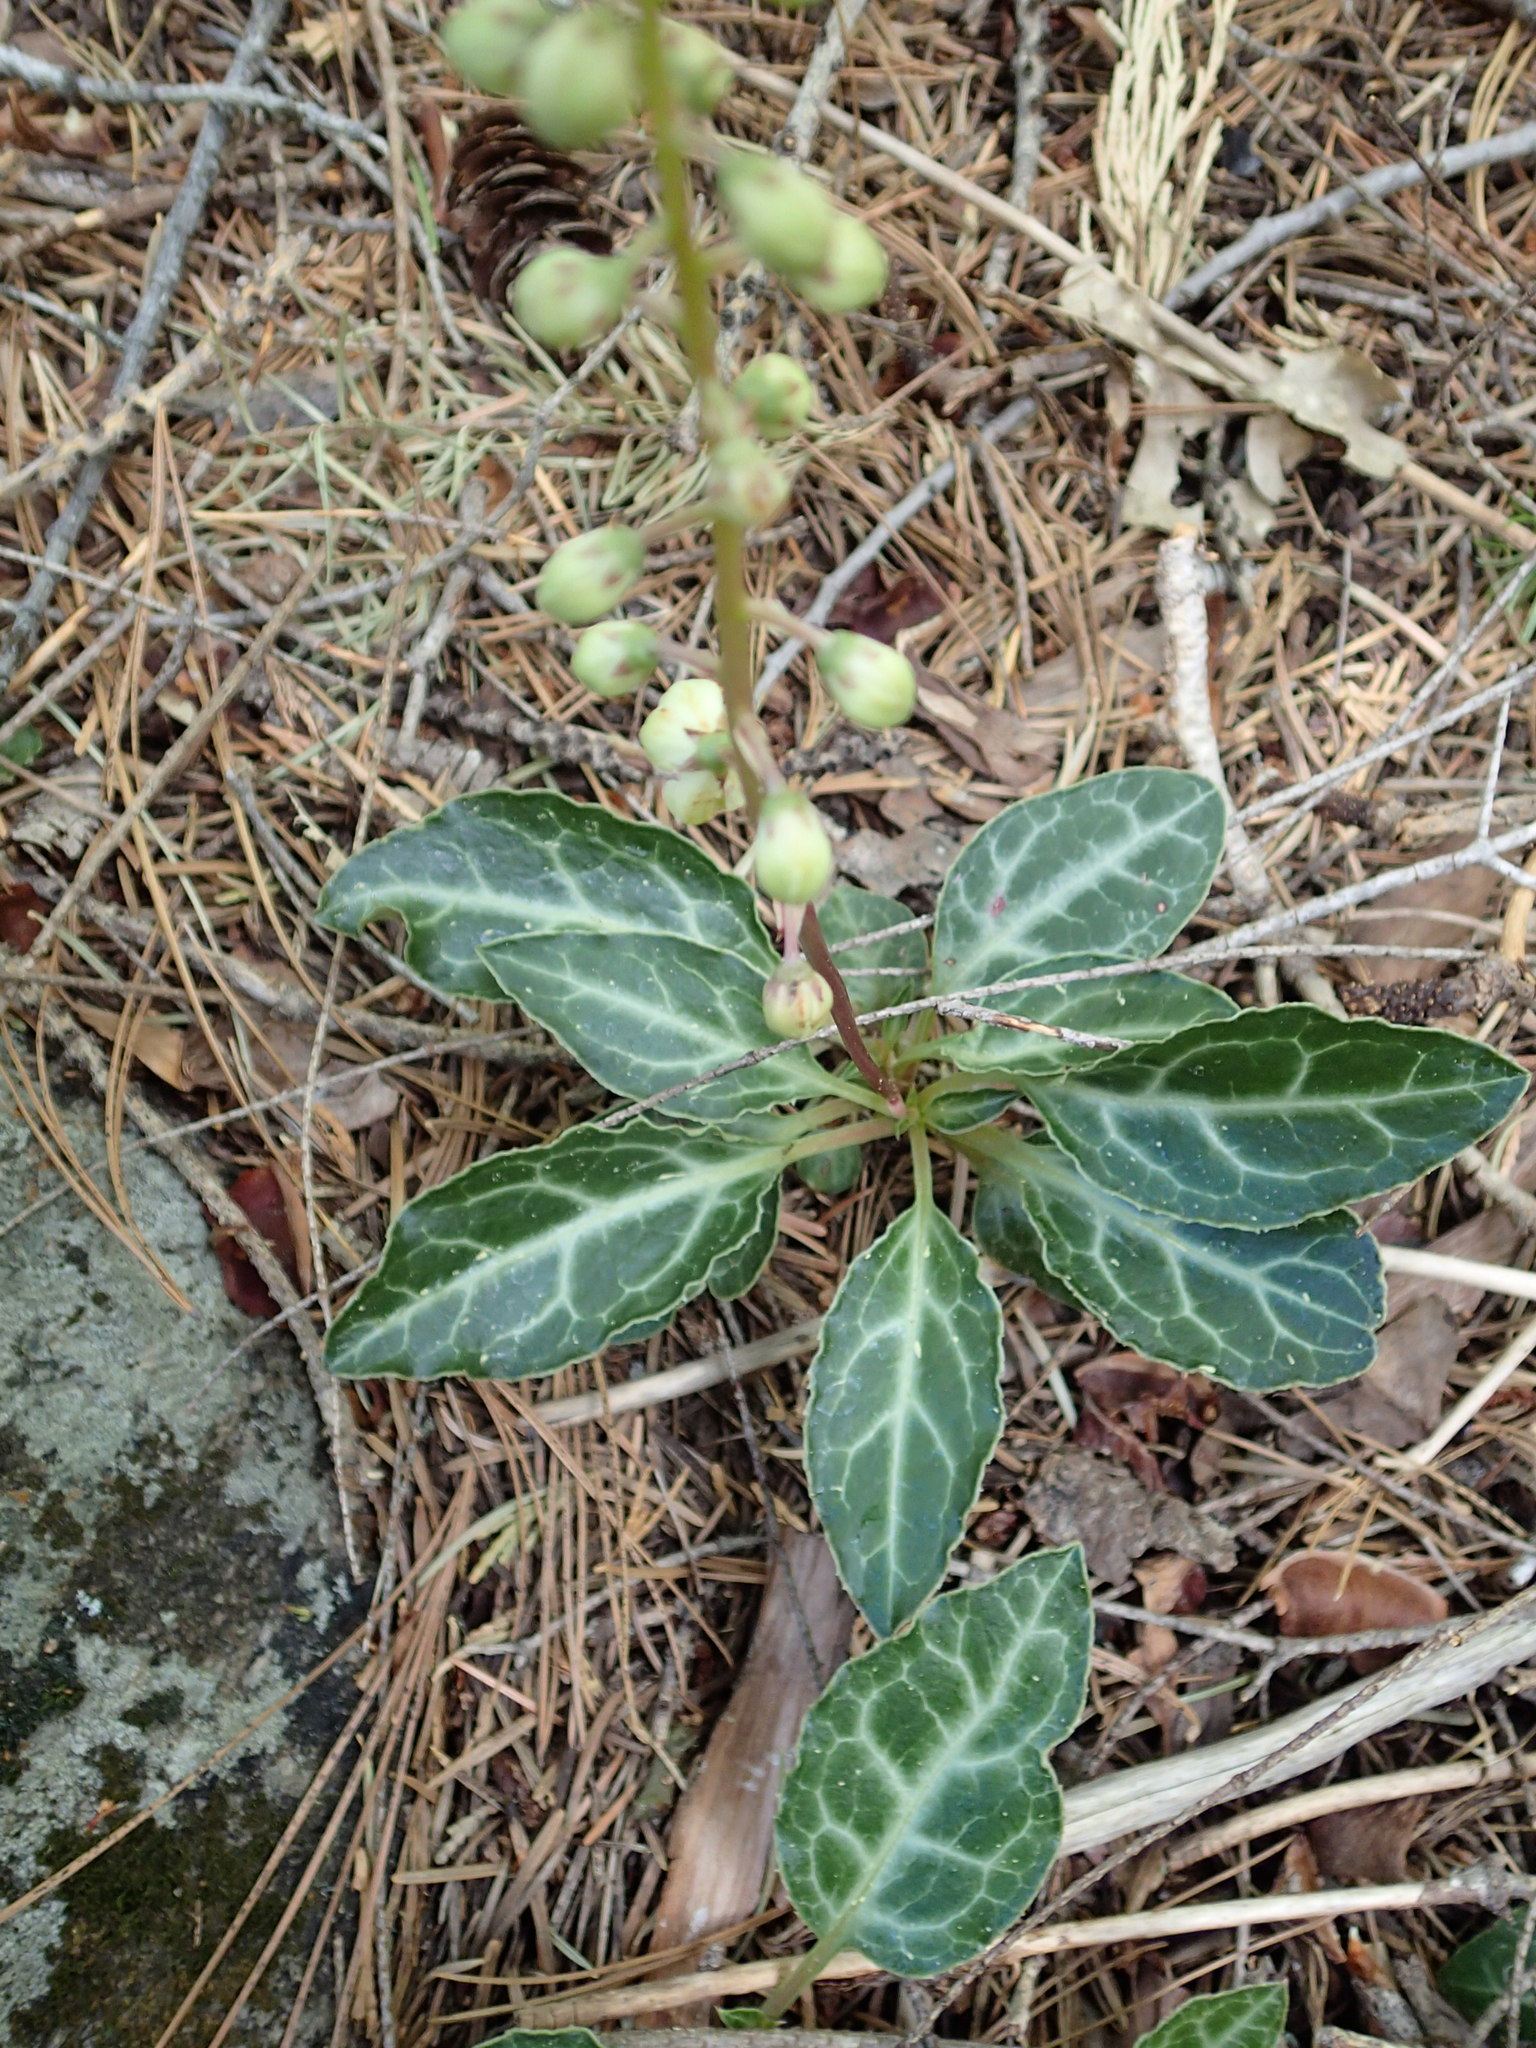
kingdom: Plantae
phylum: Tracheophyta
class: Magnoliopsida
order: Ericales
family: Ericaceae
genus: Pyrola
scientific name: Pyrola picta
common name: White-vein wintergreen
